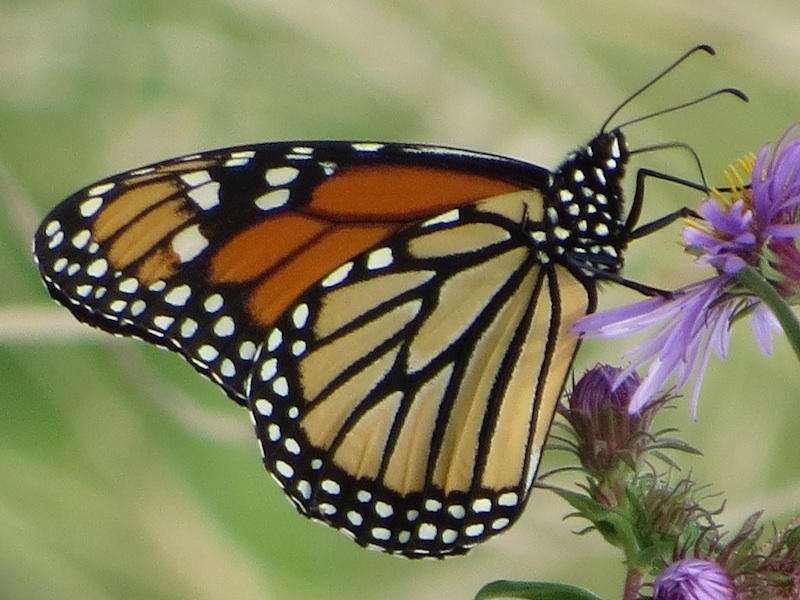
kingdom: Animalia
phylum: Arthropoda
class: Insecta
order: Lepidoptera
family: Nymphalidae
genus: Danaus
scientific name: Danaus plexippus
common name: Monarch
